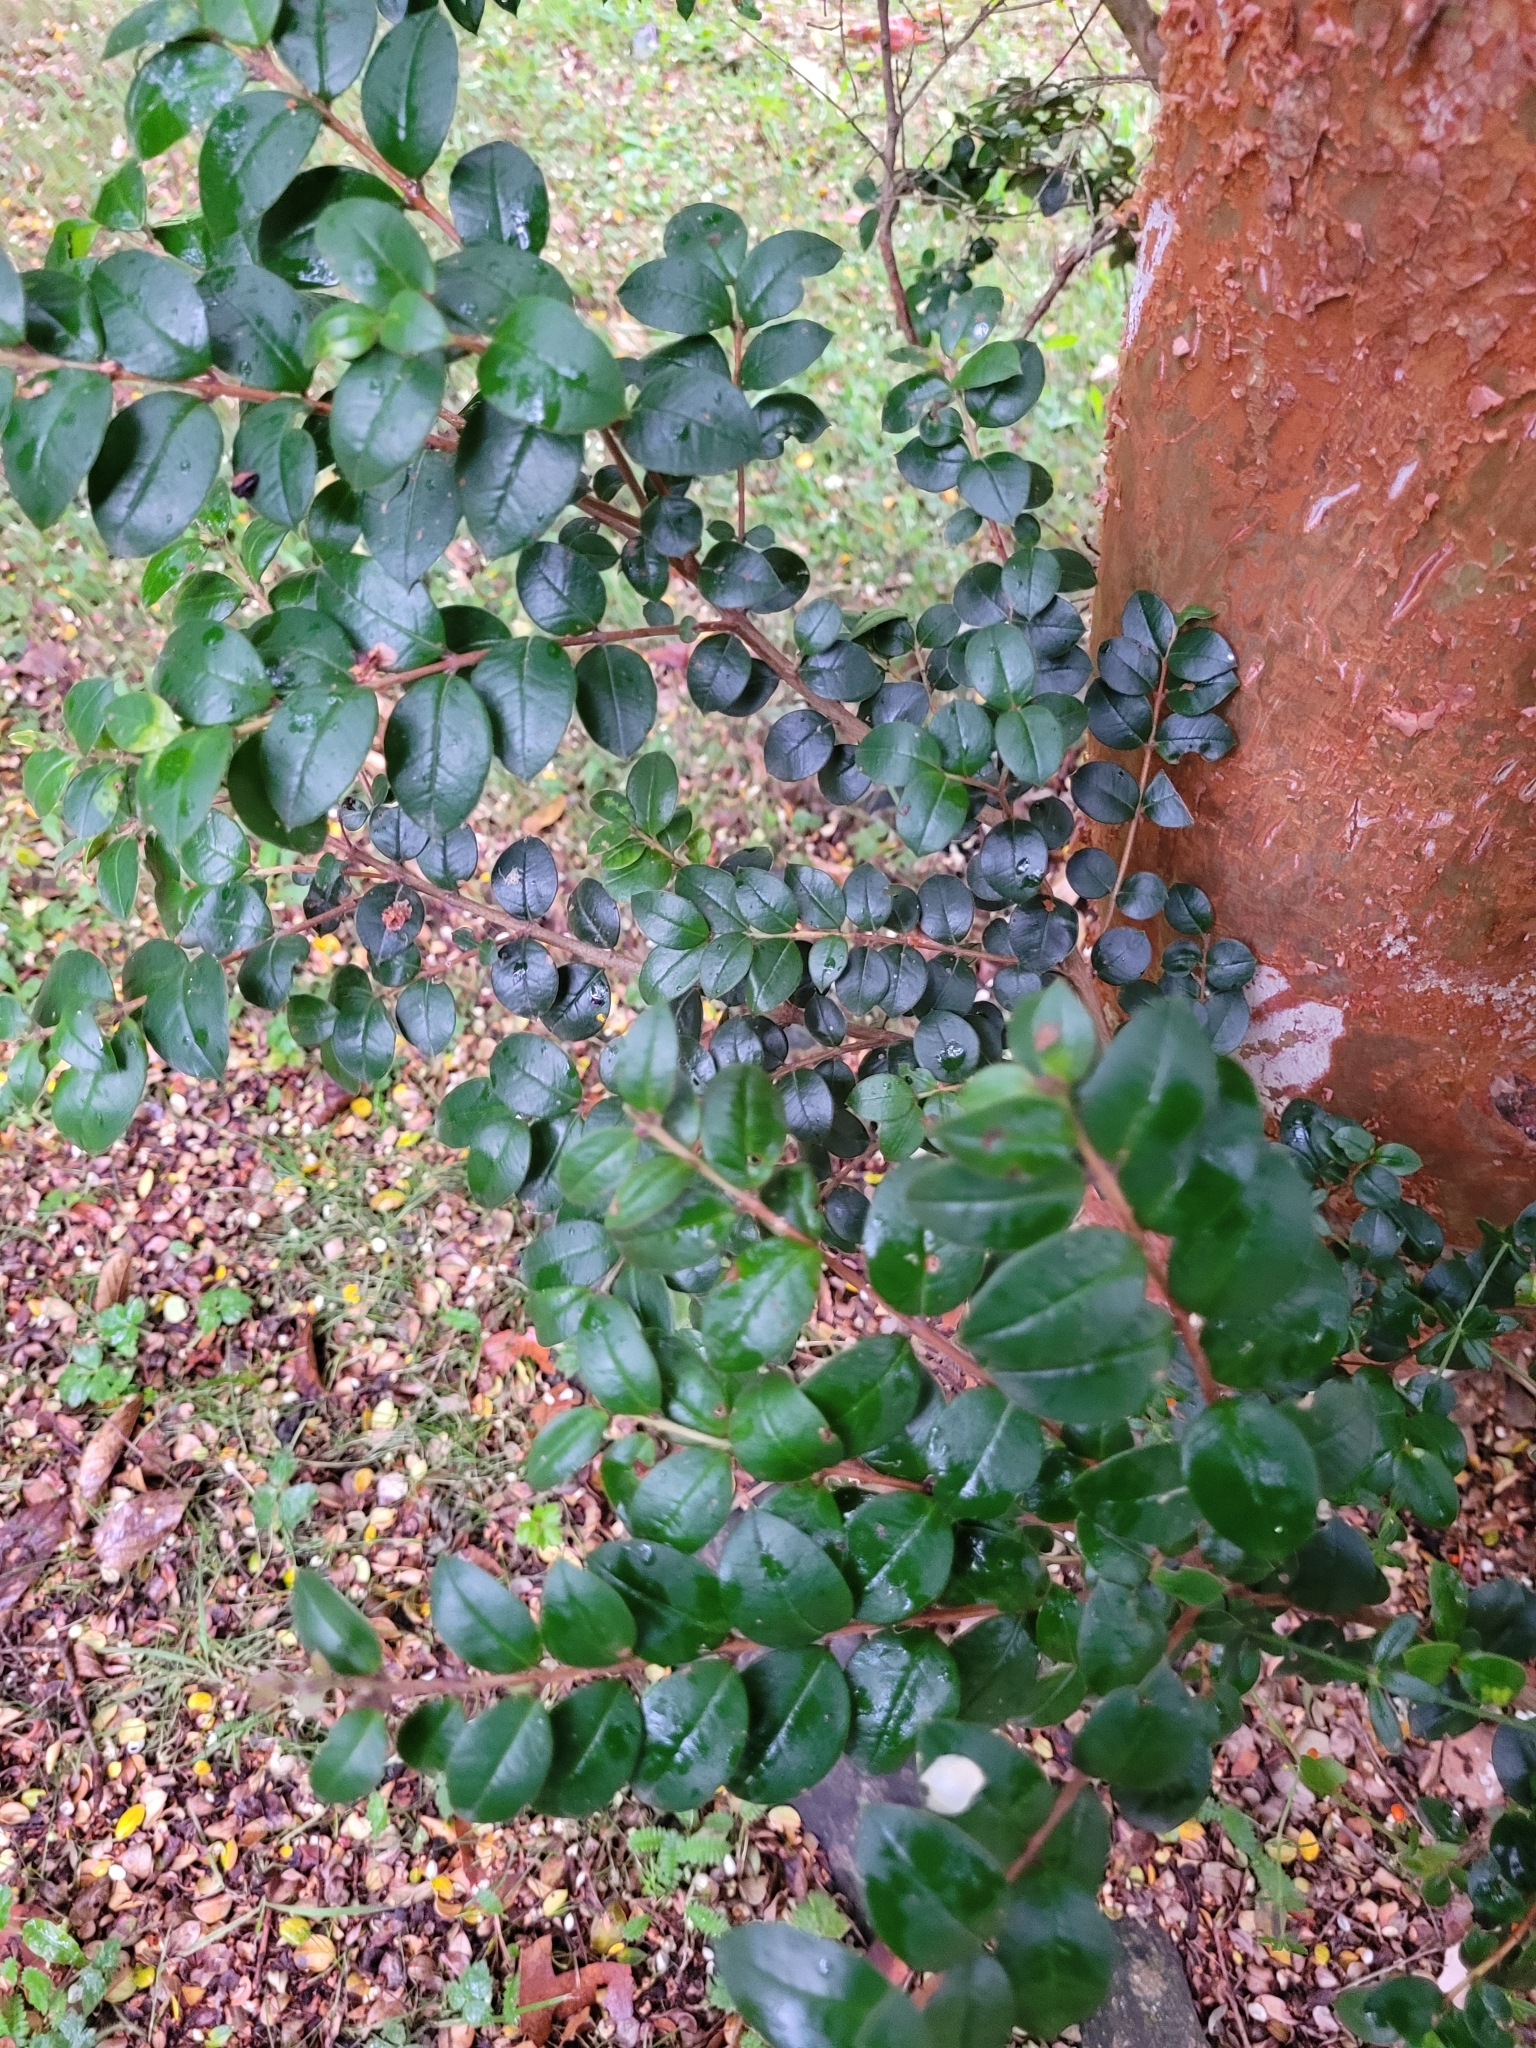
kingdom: Plantae
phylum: Tracheophyta
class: Magnoliopsida
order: Myrtales
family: Myrtaceae
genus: Luma
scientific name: Luma apiculata
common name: Chilean myrtle
